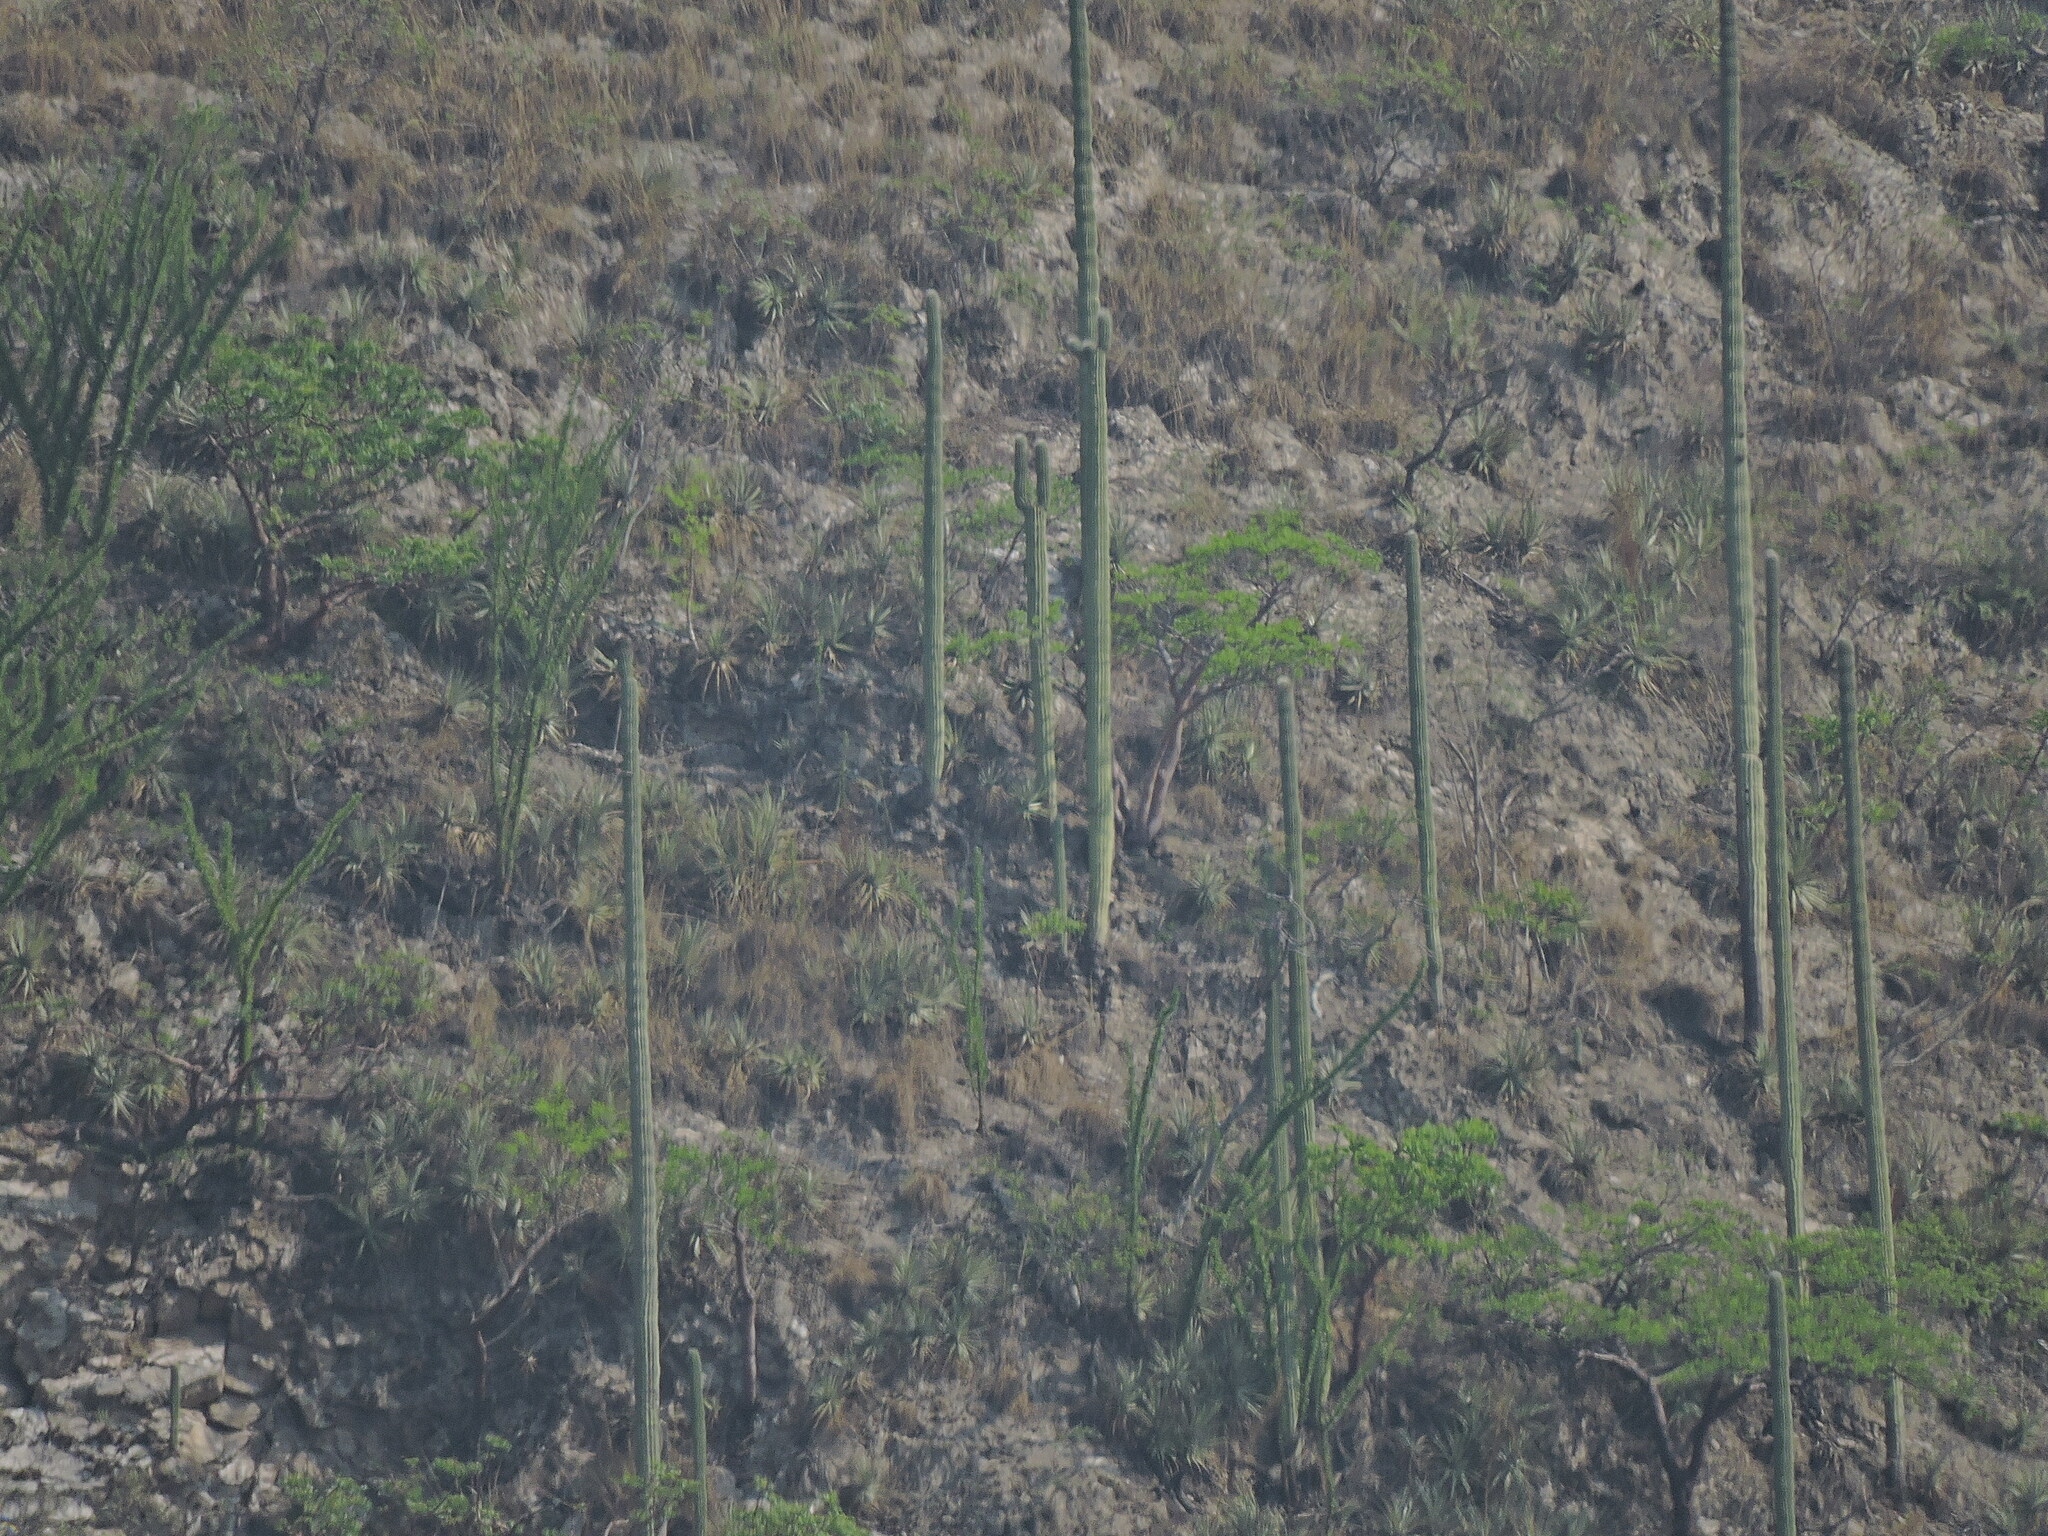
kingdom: Plantae
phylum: Tracheophyta
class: Magnoliopsida
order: Caryophyllales
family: Cactaceae
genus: Cephalocereus
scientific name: Cephalocereus mezcalaensis
